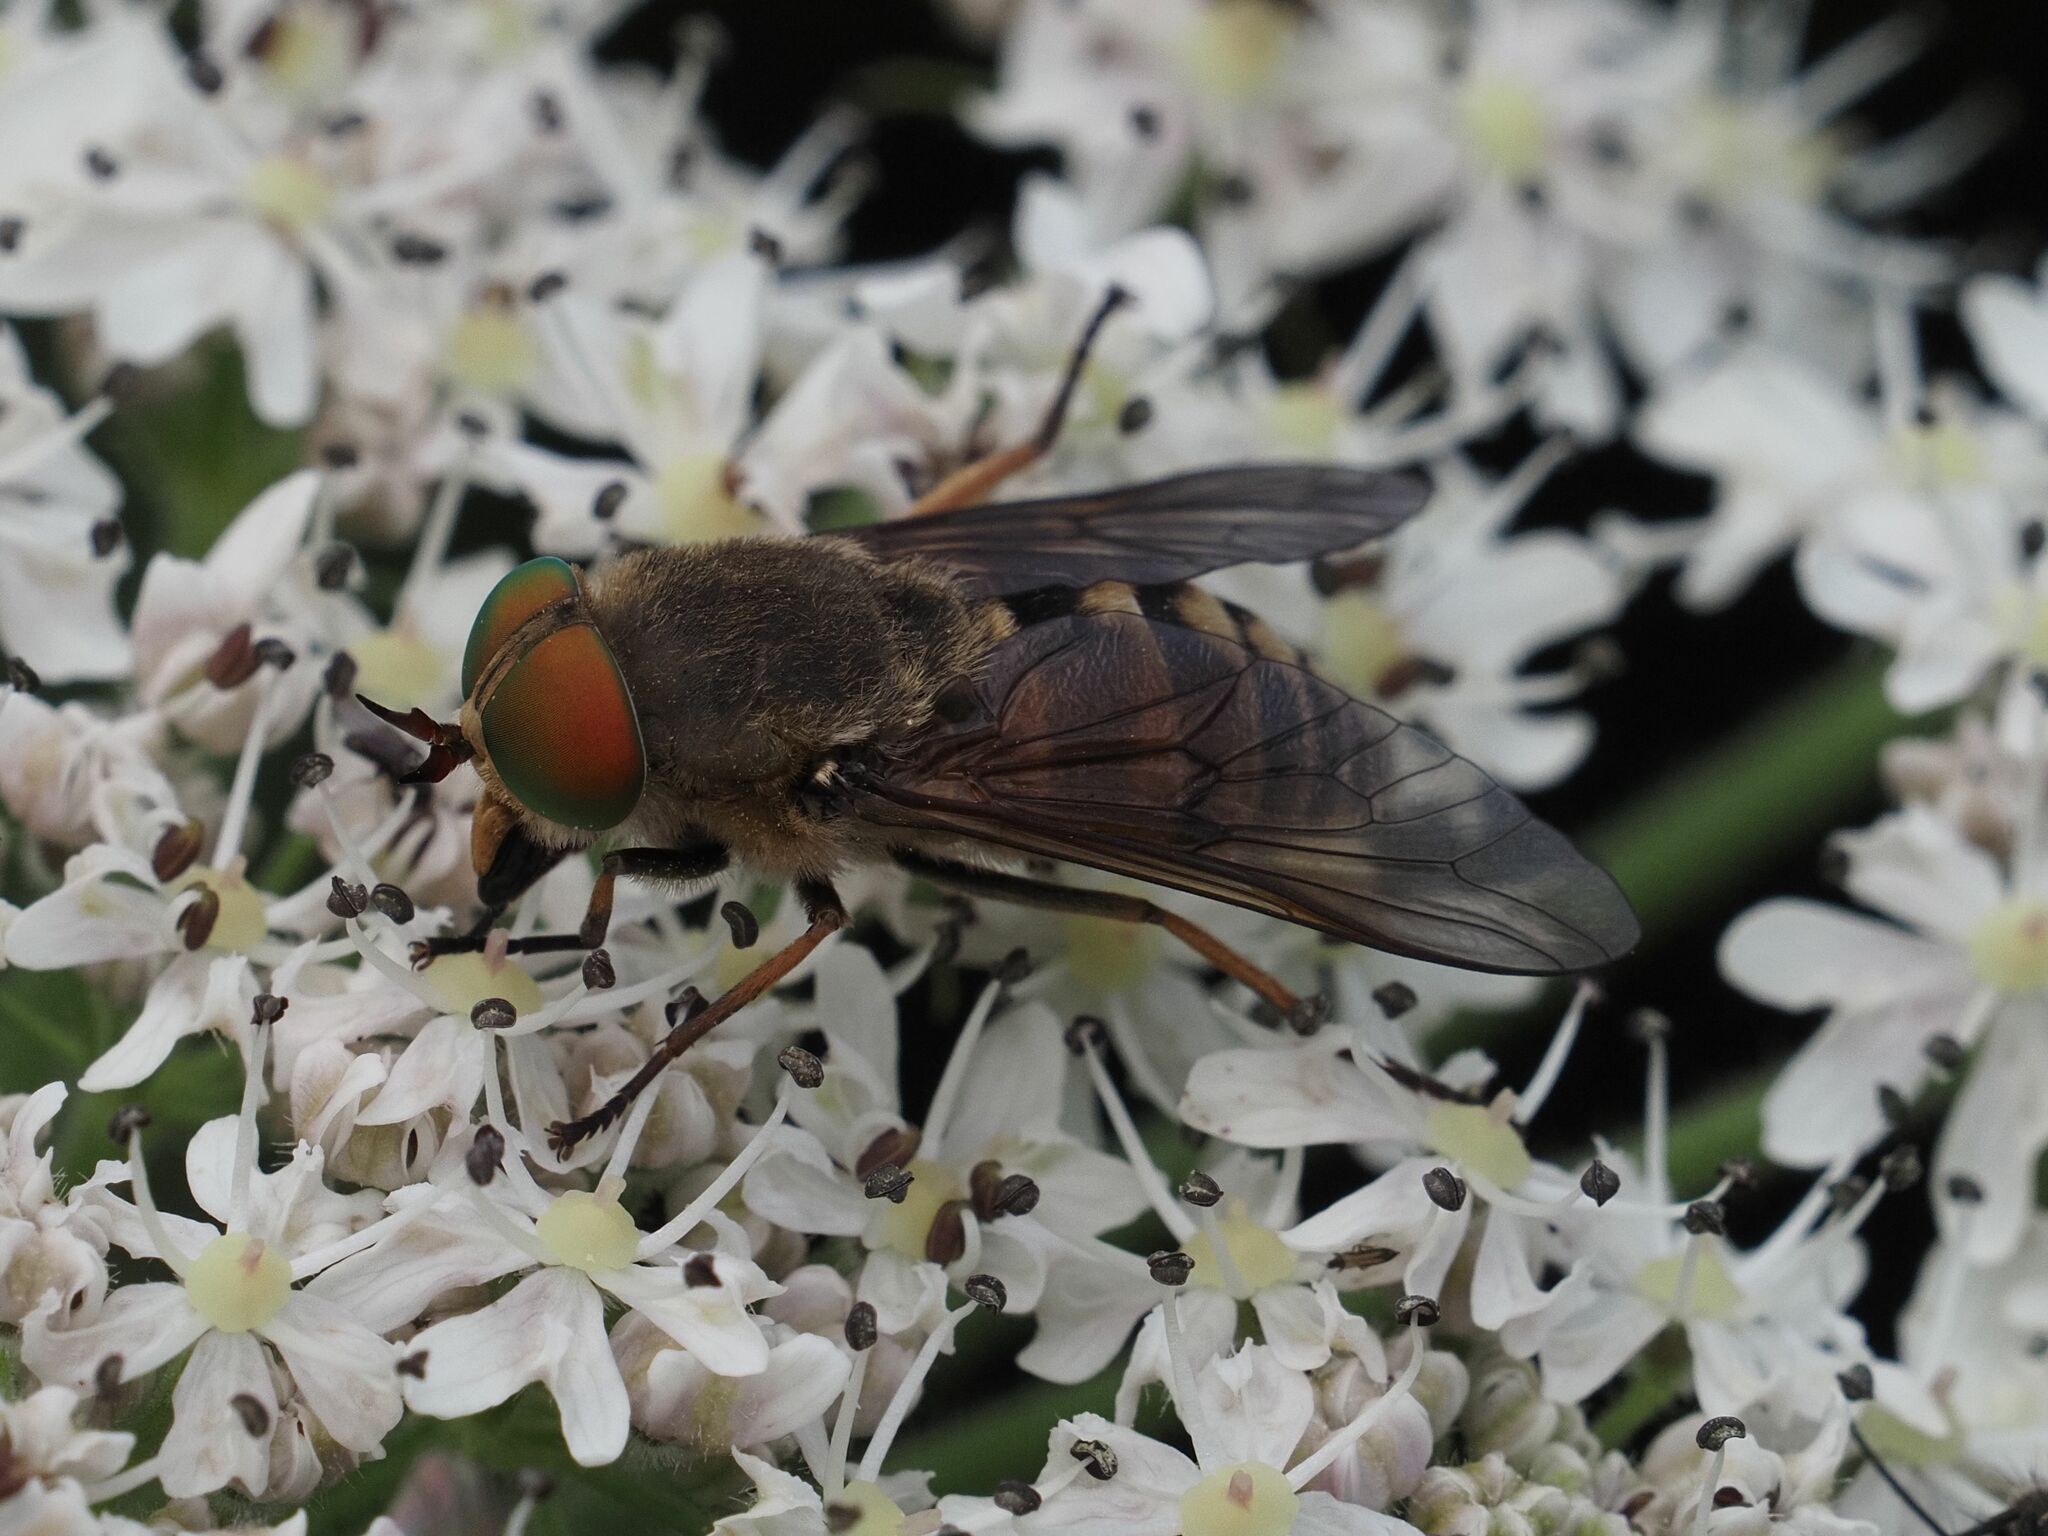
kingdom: Animalia
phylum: Arthropoda
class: Insecta
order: Diptera
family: Tabanidae
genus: Philipomyia
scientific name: Philipomyia aprica
